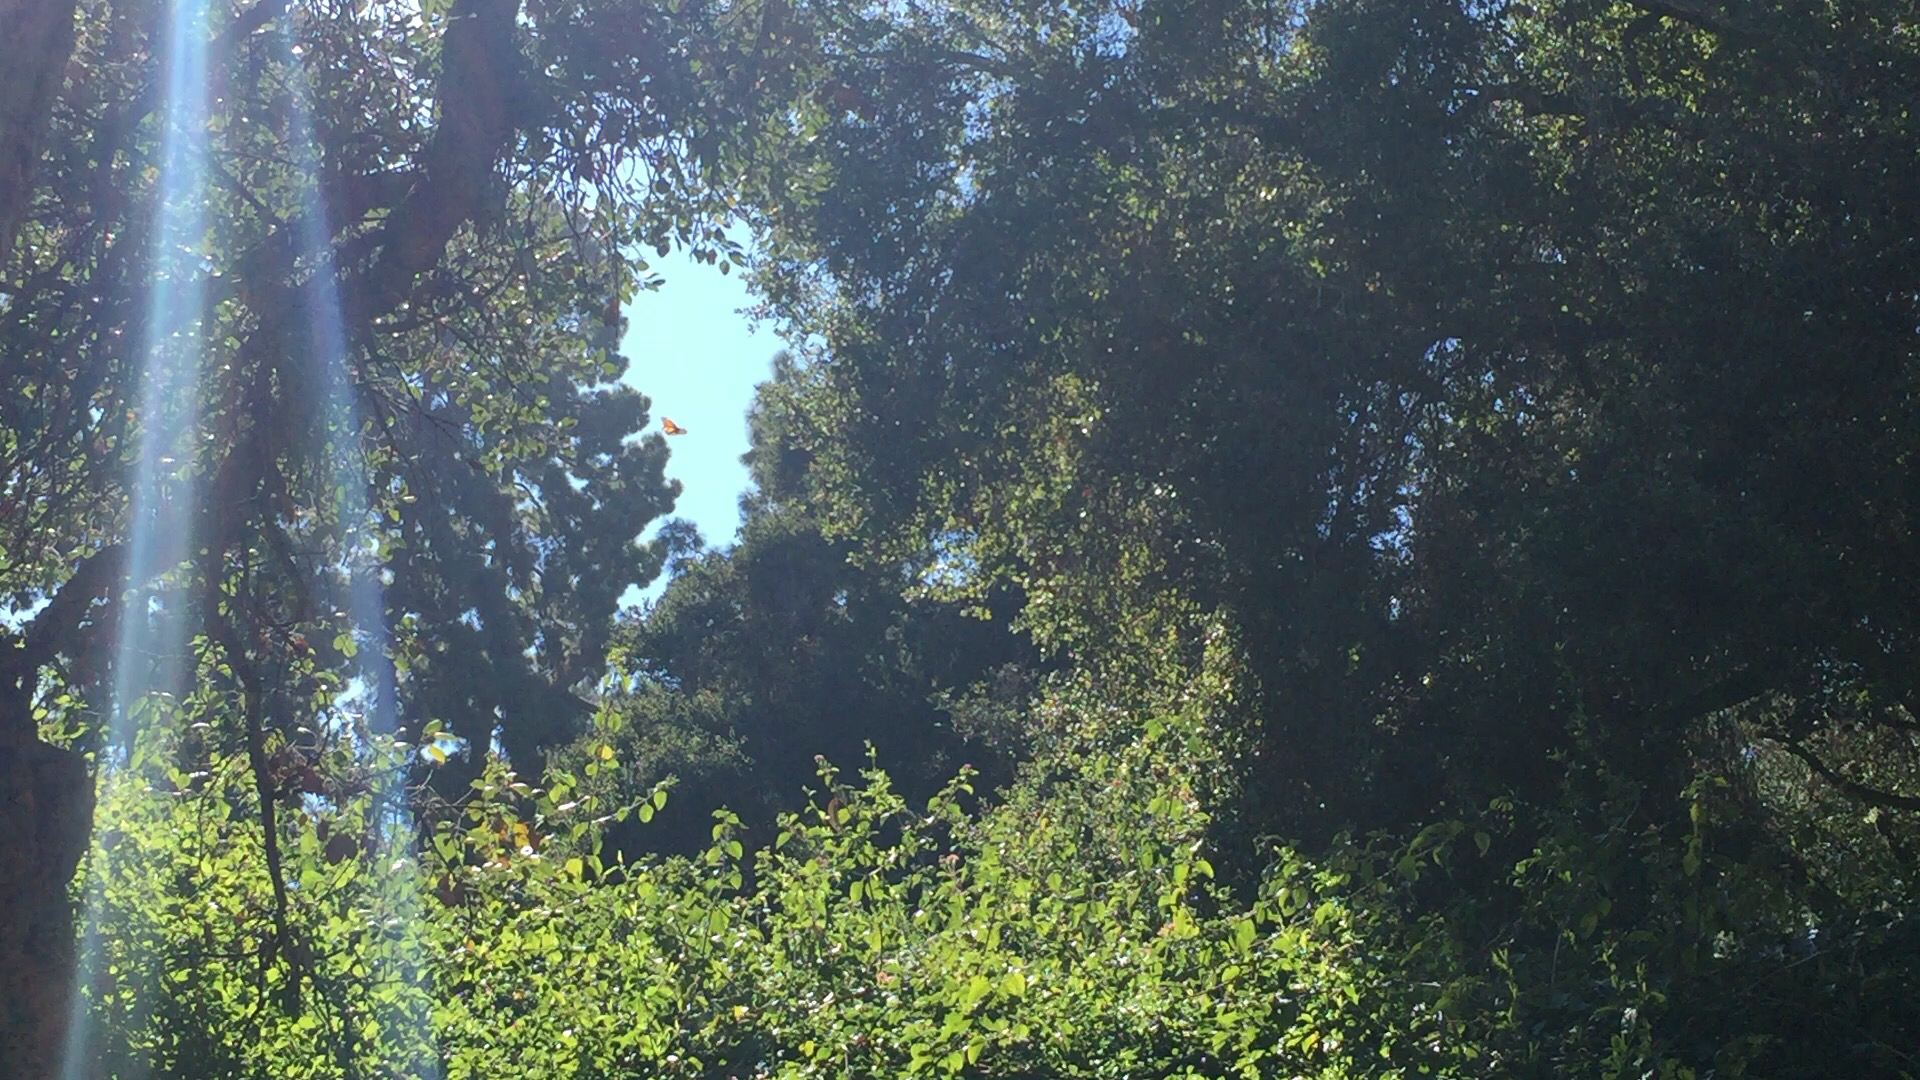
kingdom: Animalia
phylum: Arthropoda
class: Insecta
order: Lepidoptera
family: Nymphalidae
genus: Danaus
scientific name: Danaus plexippus
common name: Monarch
